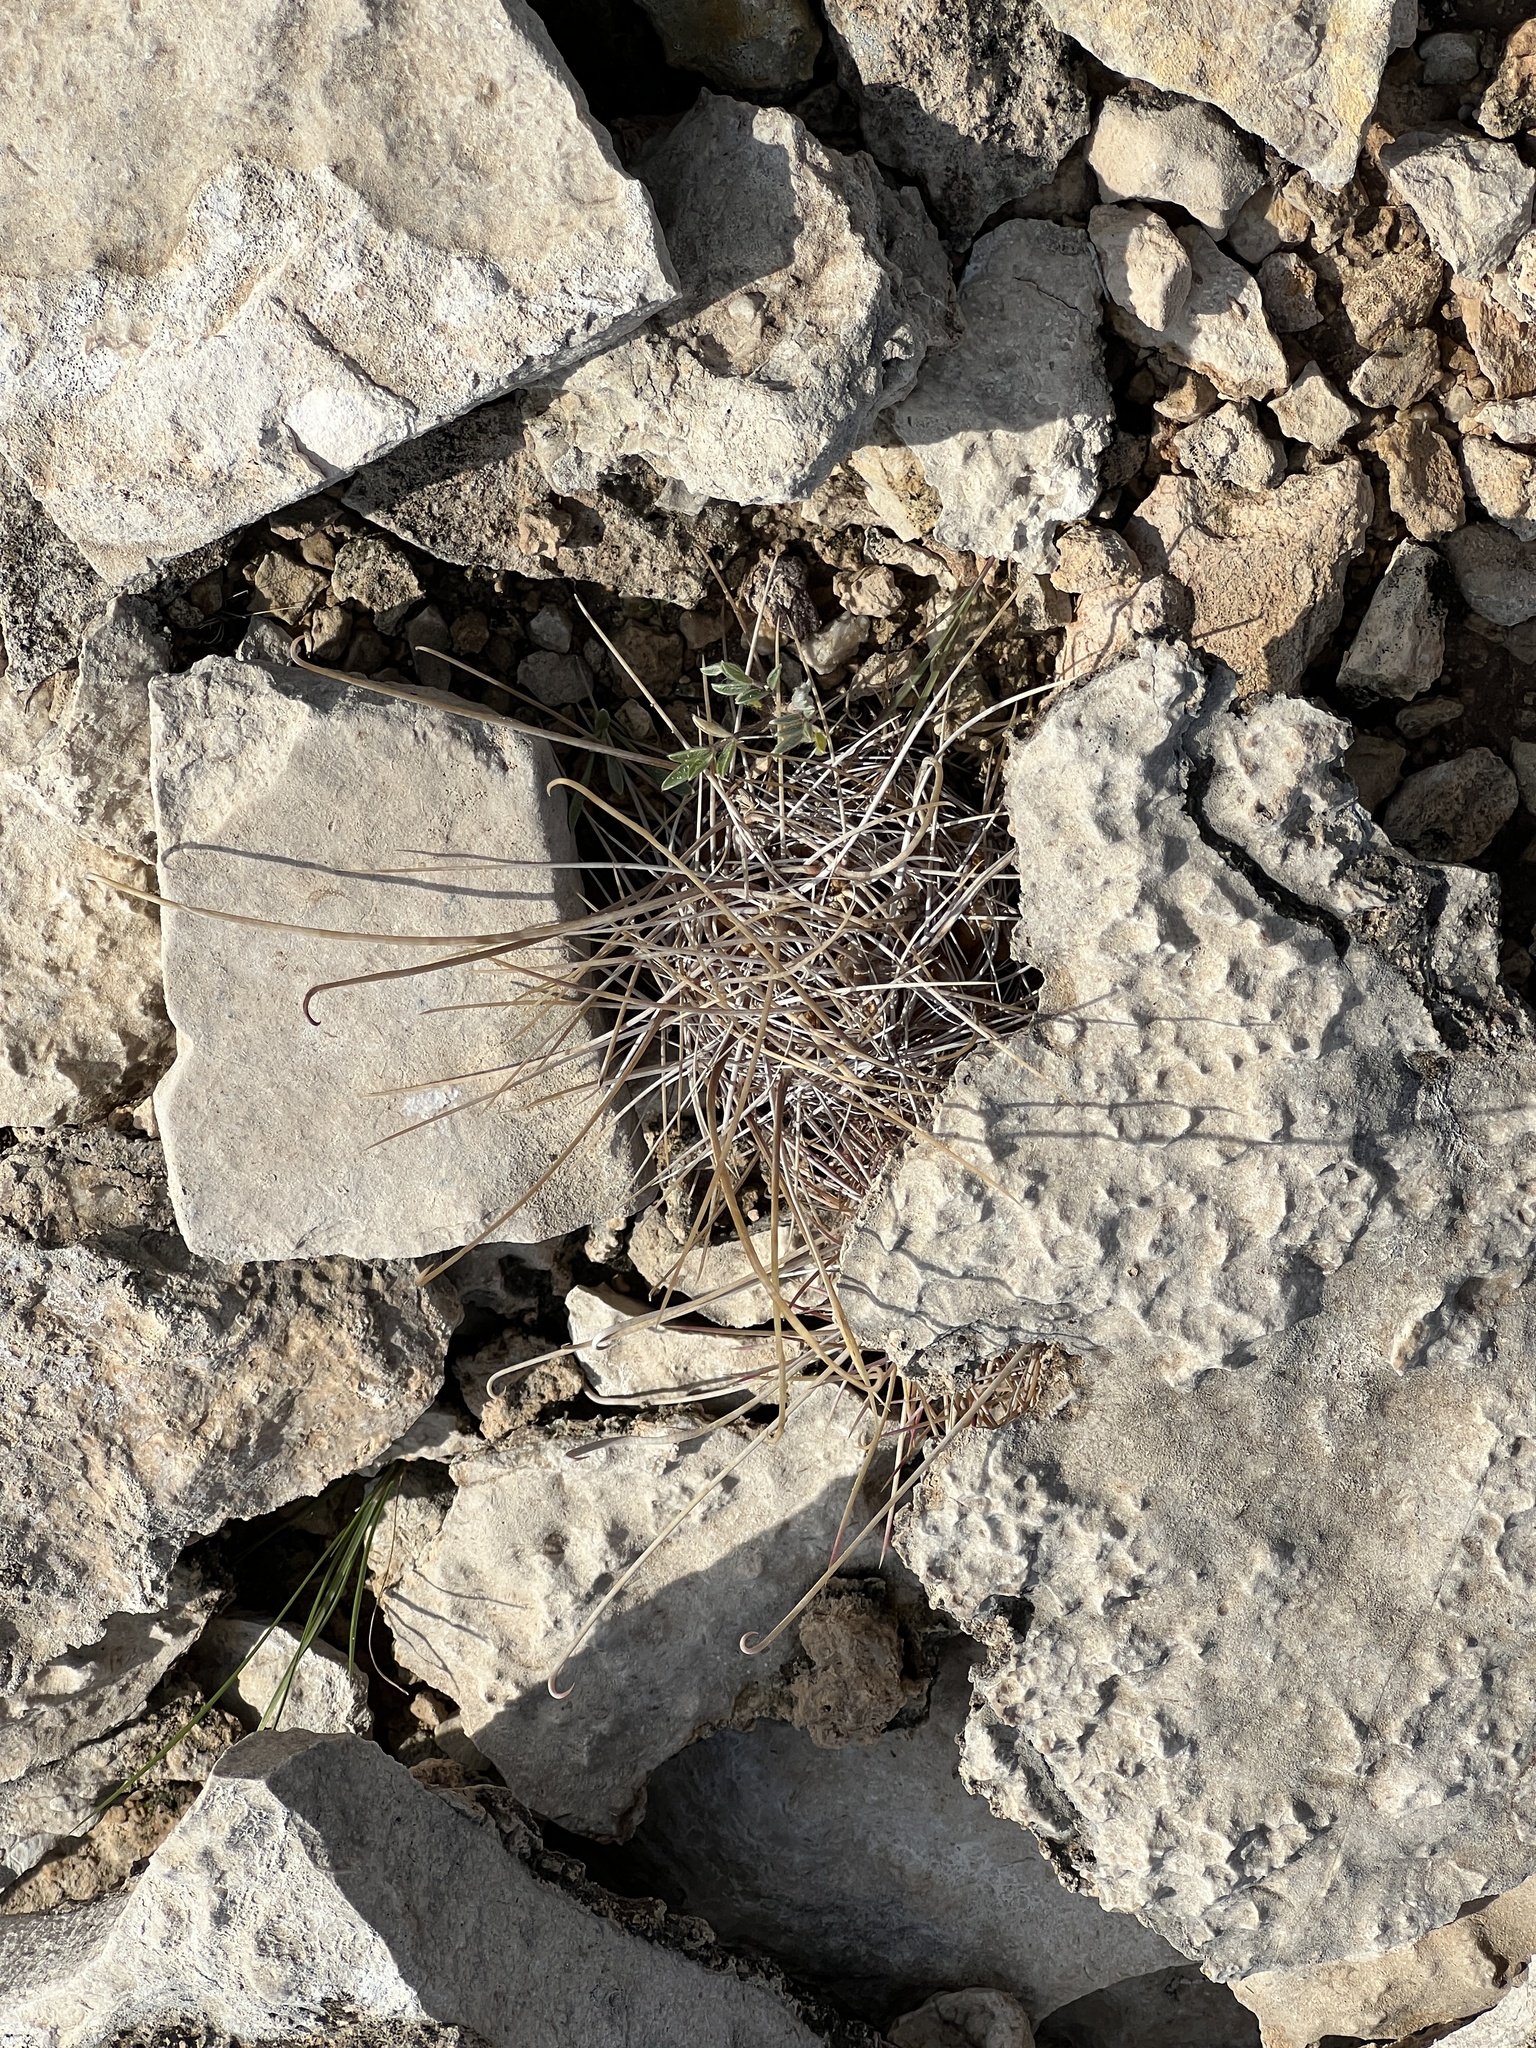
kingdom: Plantae
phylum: Tracheophyta
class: Magnoliopsida
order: Caryophyllales
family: Cactaceae
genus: Ferocactus
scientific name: Ferocactus uncinatus
